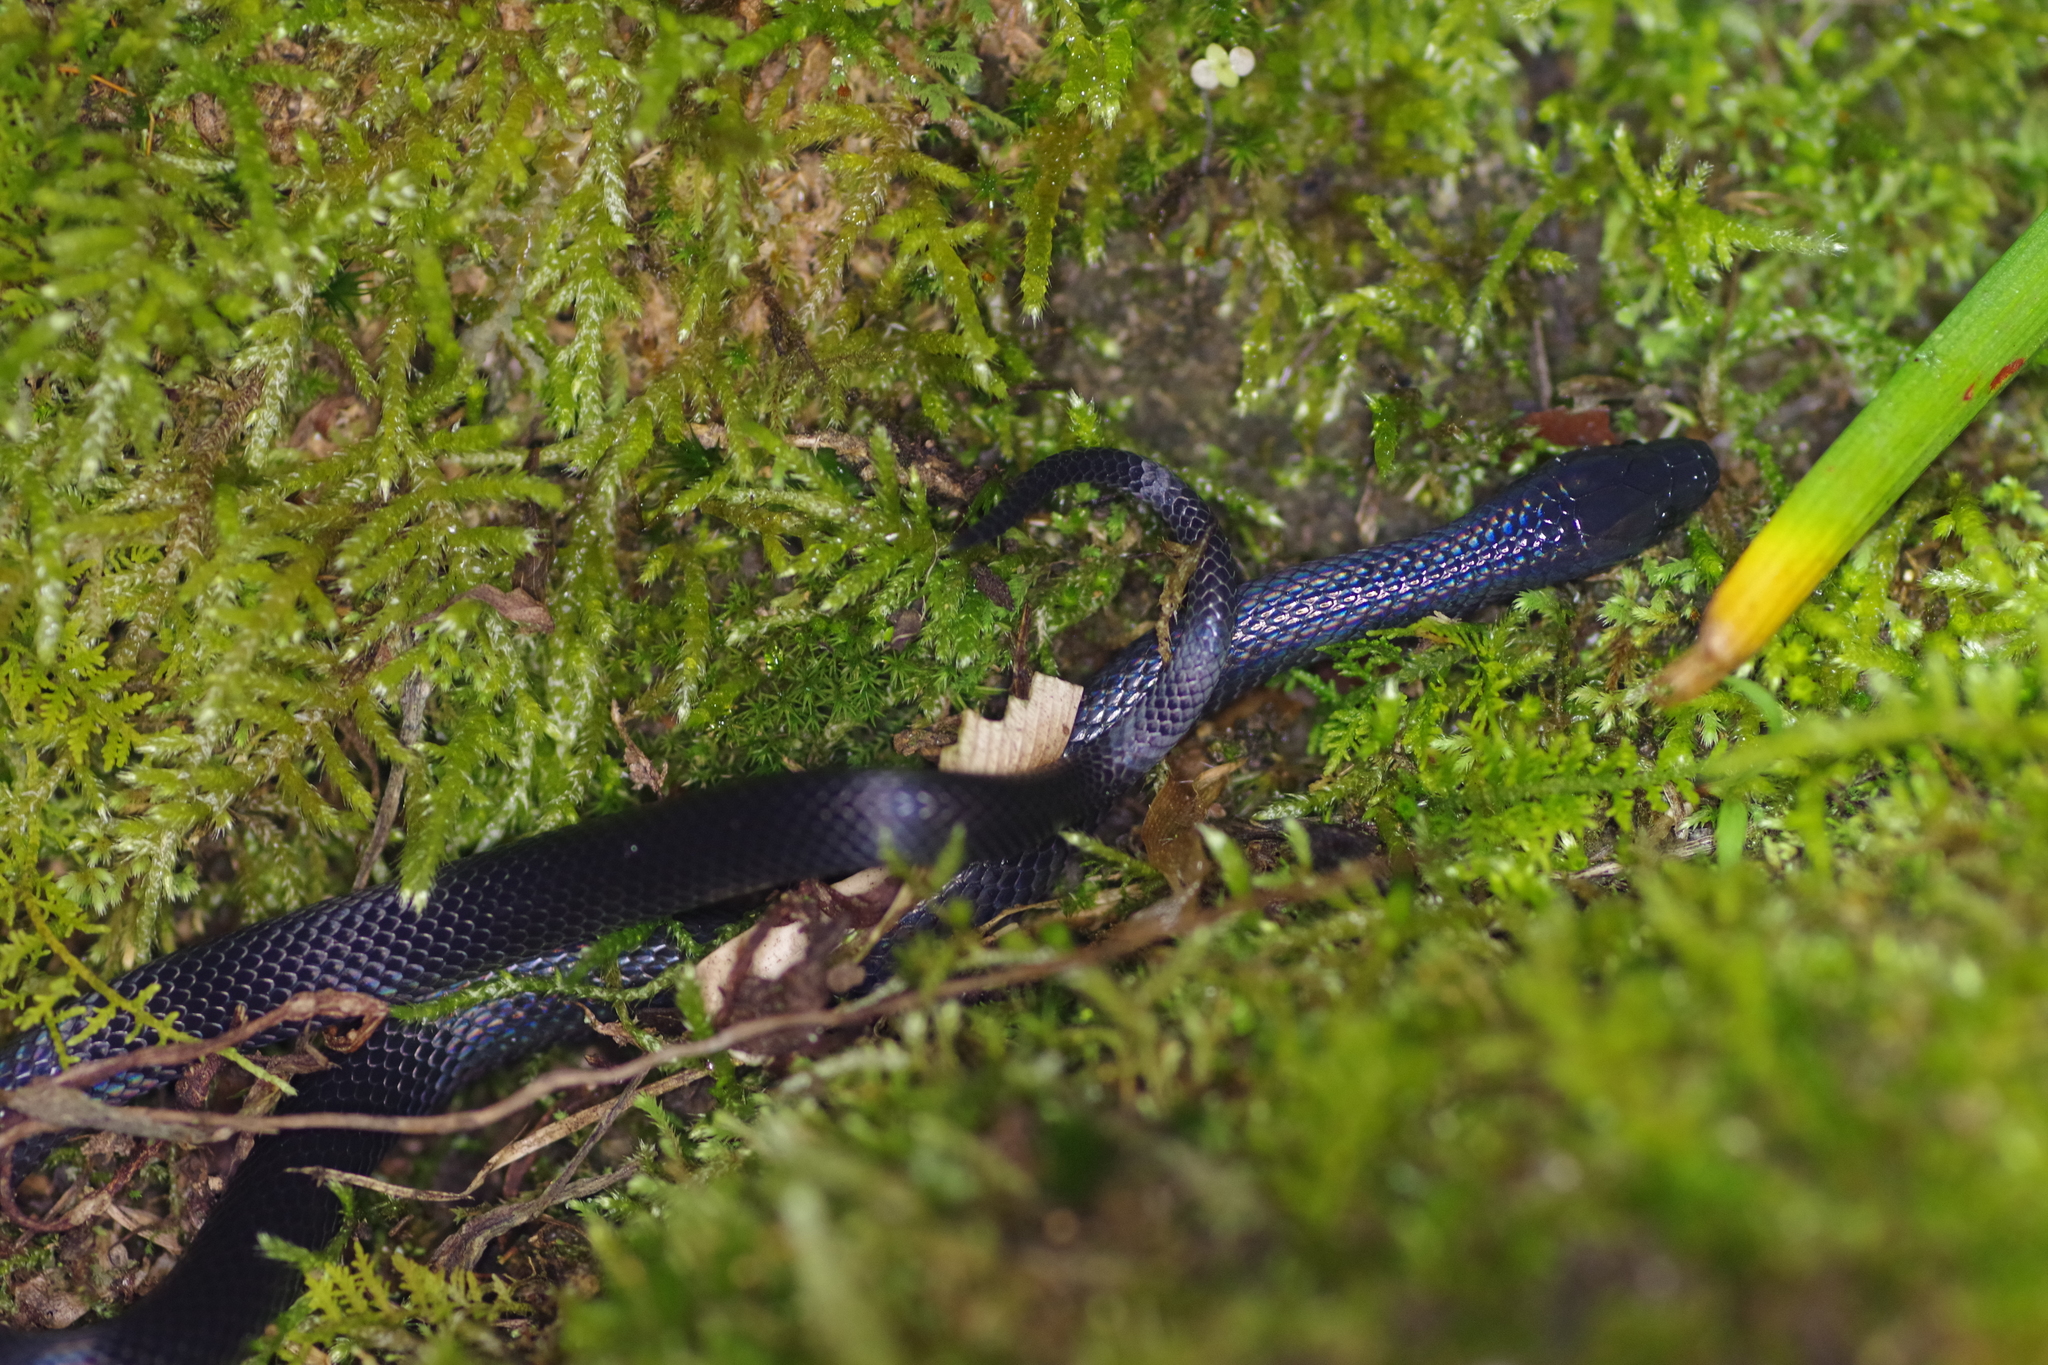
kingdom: Animalia
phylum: Chordata
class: Squamata
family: Colubridae
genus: Geophis
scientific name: Geophis hoffmanni
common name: Hoffmann's earth snake
